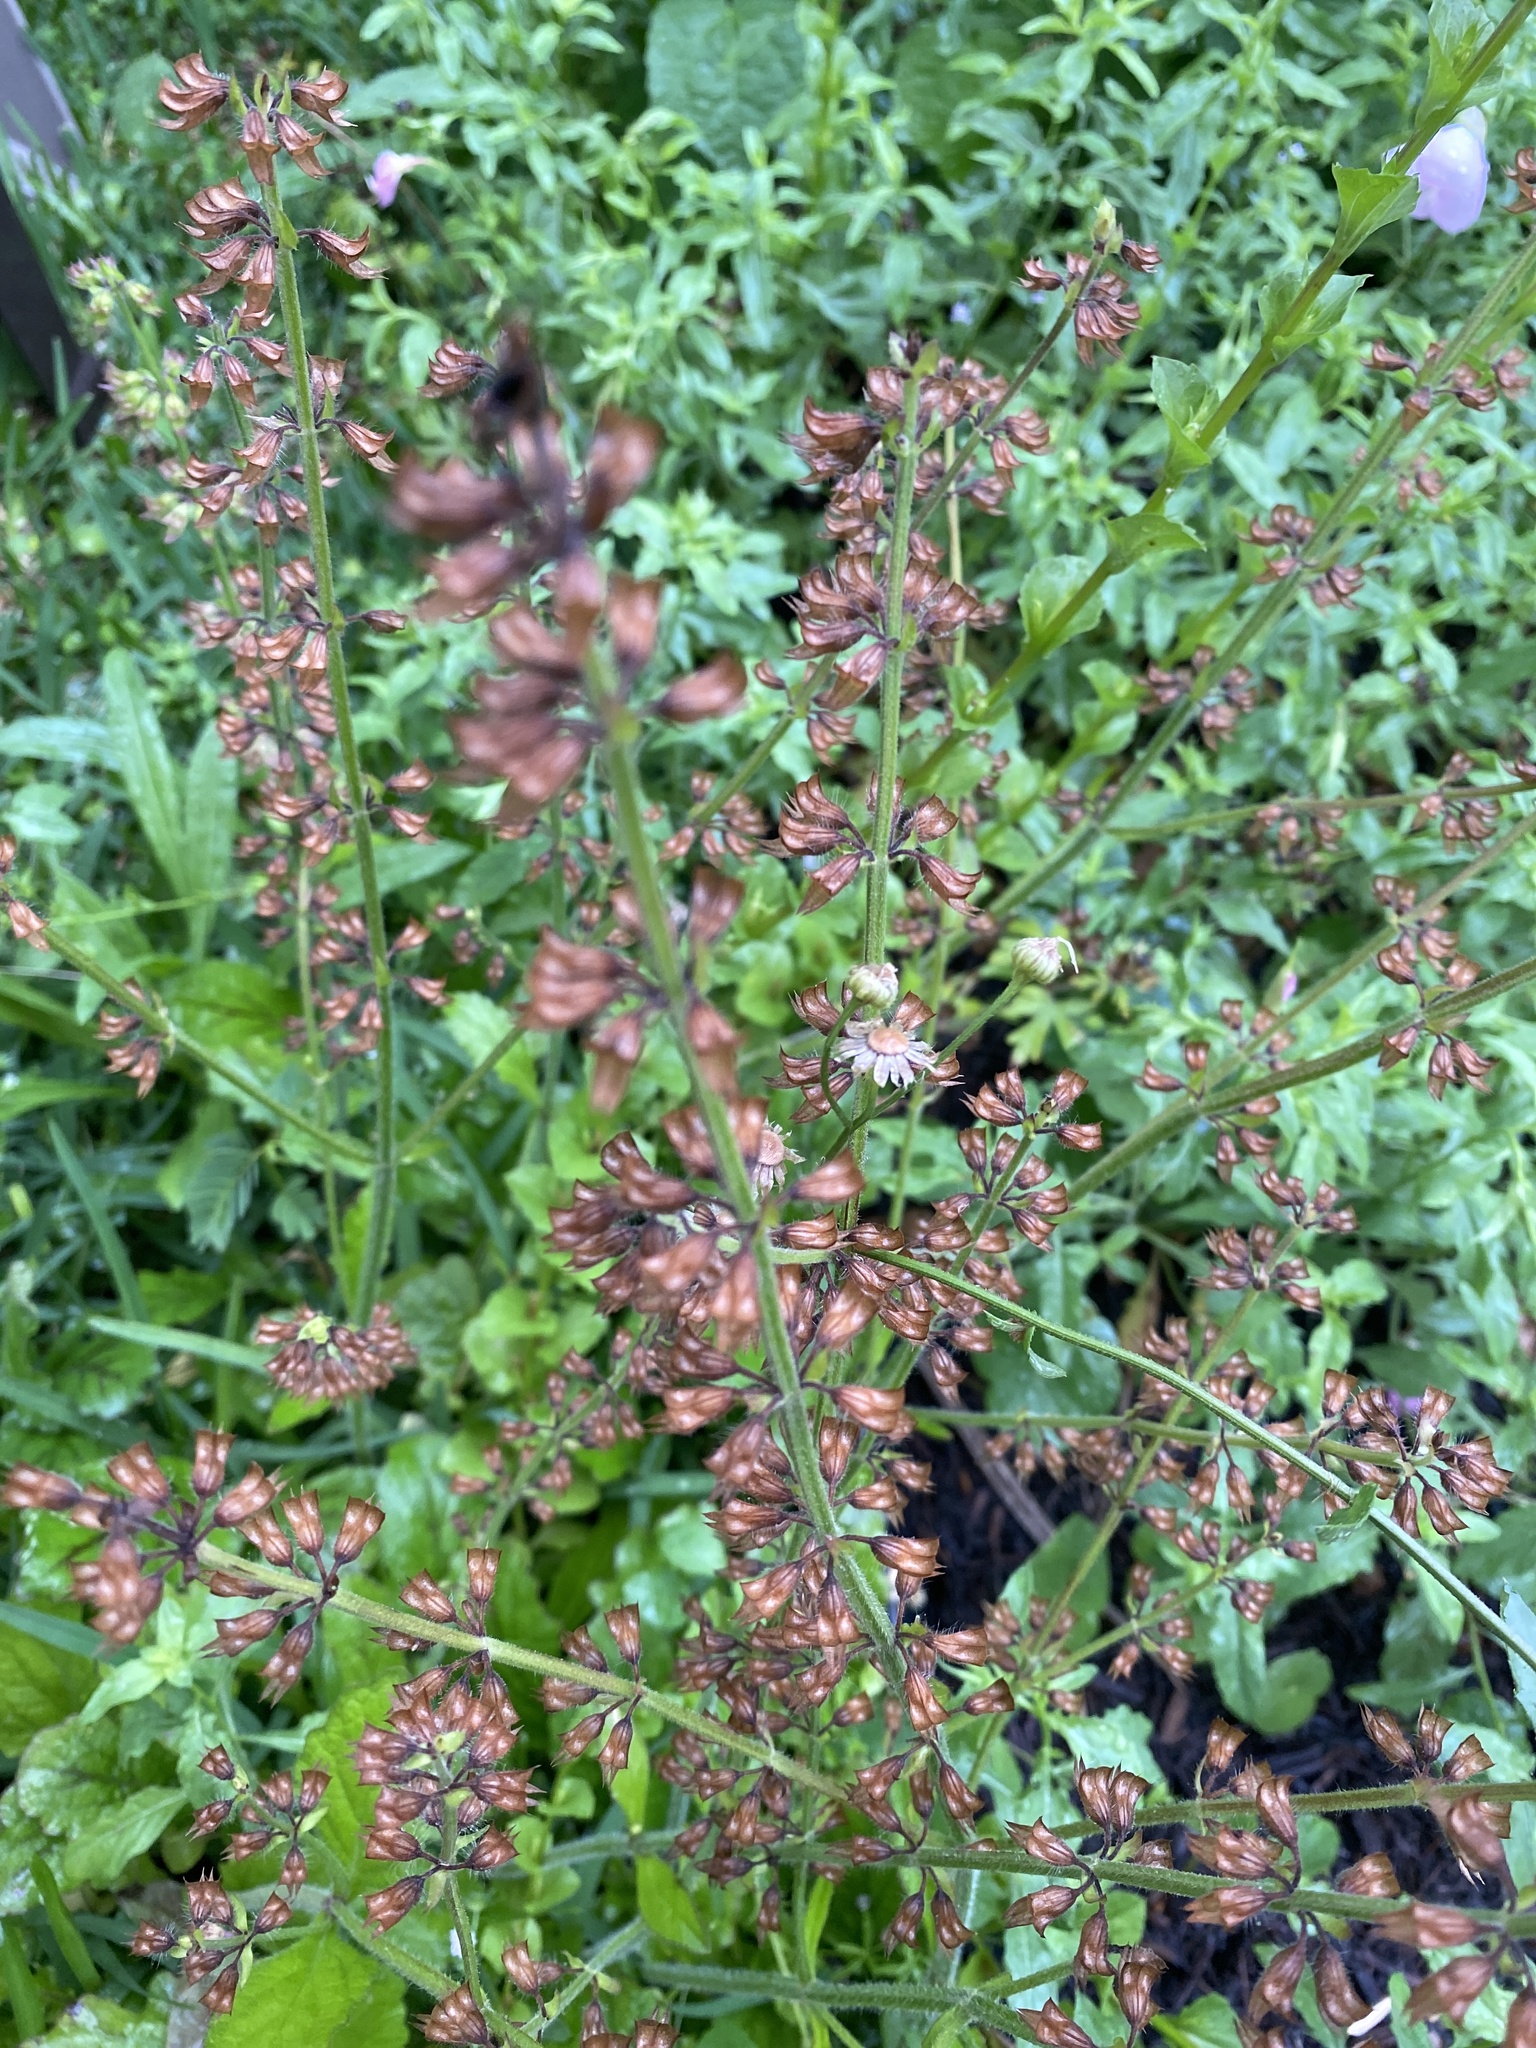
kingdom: Plantae
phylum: Tracheophyta
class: Magnoliopsida
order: Lamiales
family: Lamiaceae
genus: Salvia
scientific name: Salvia lyrata
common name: Cancerweed
